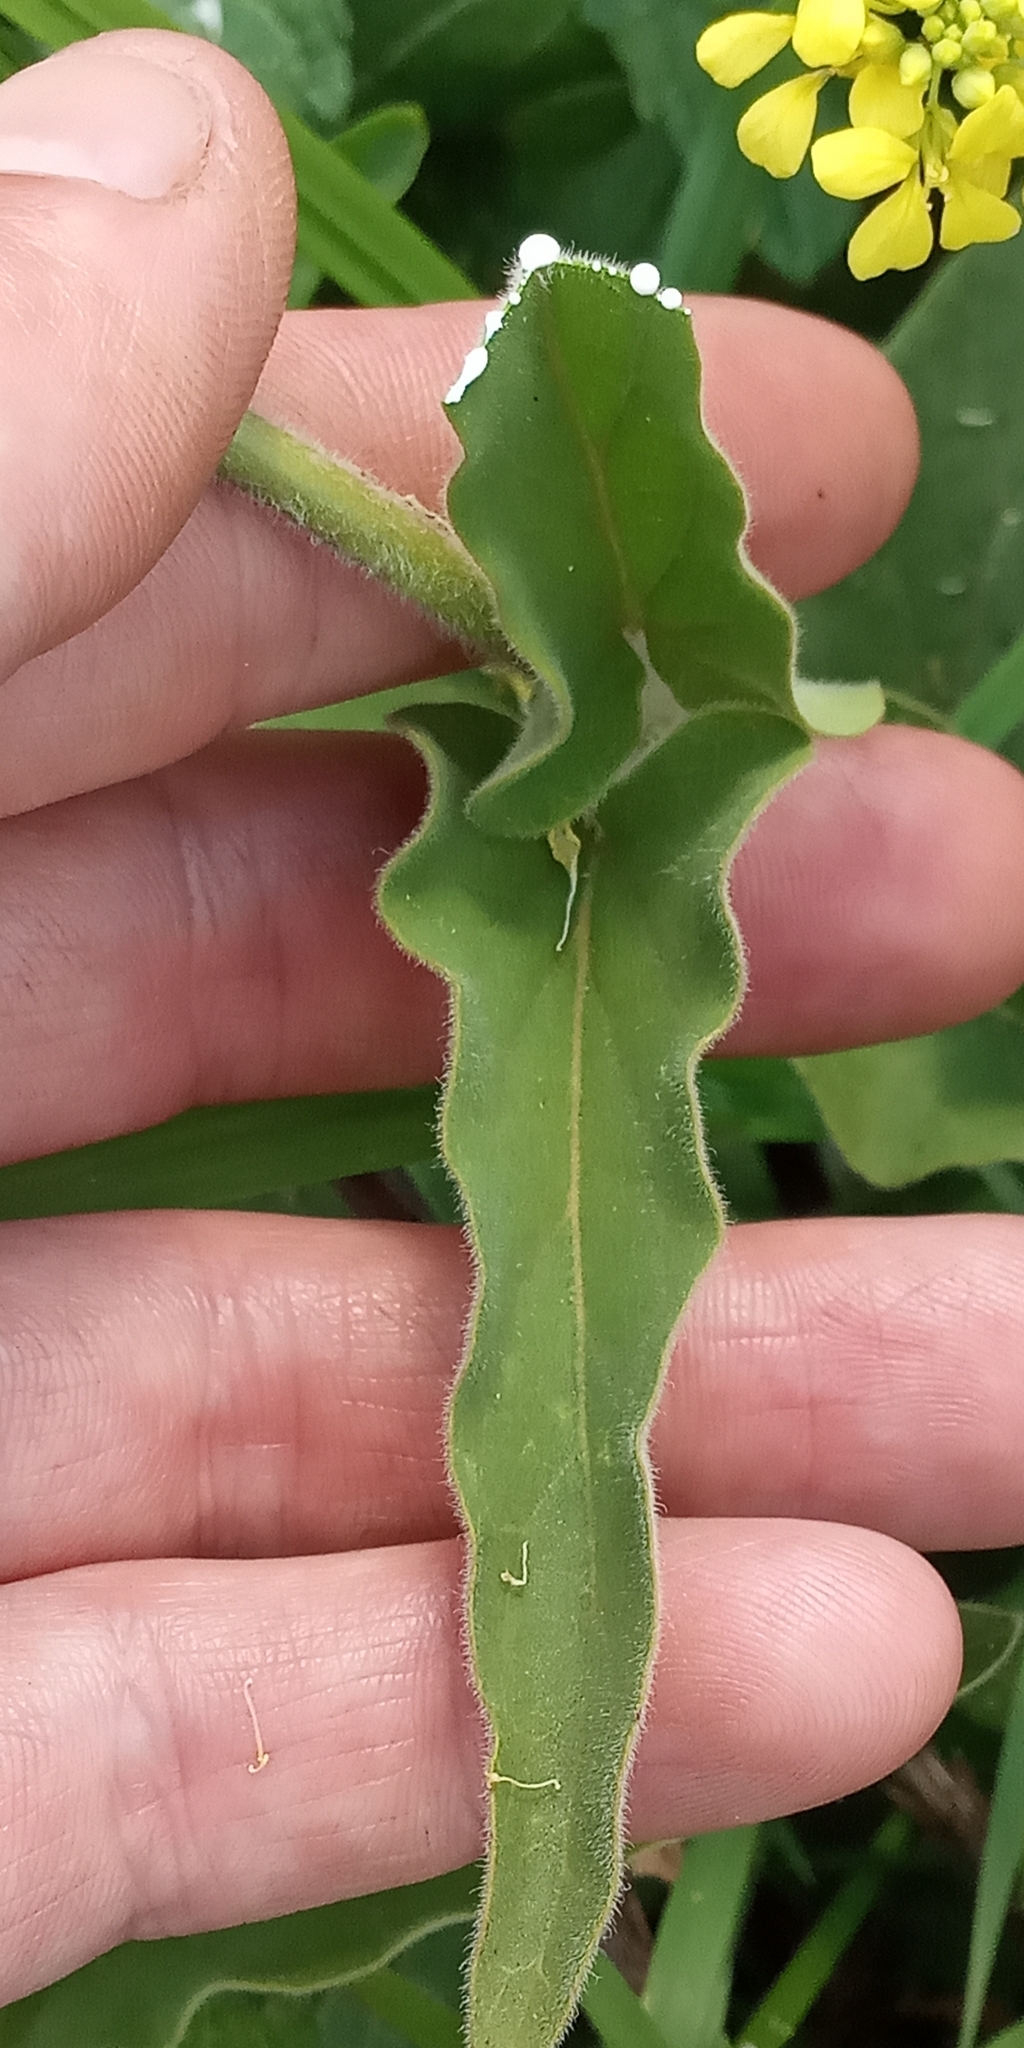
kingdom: Plantae
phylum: Tracheophyta
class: Magnoliopsida
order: Gentianales
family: Apocynaceae
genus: Oxypetalum
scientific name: Oxypetalum solanoides
